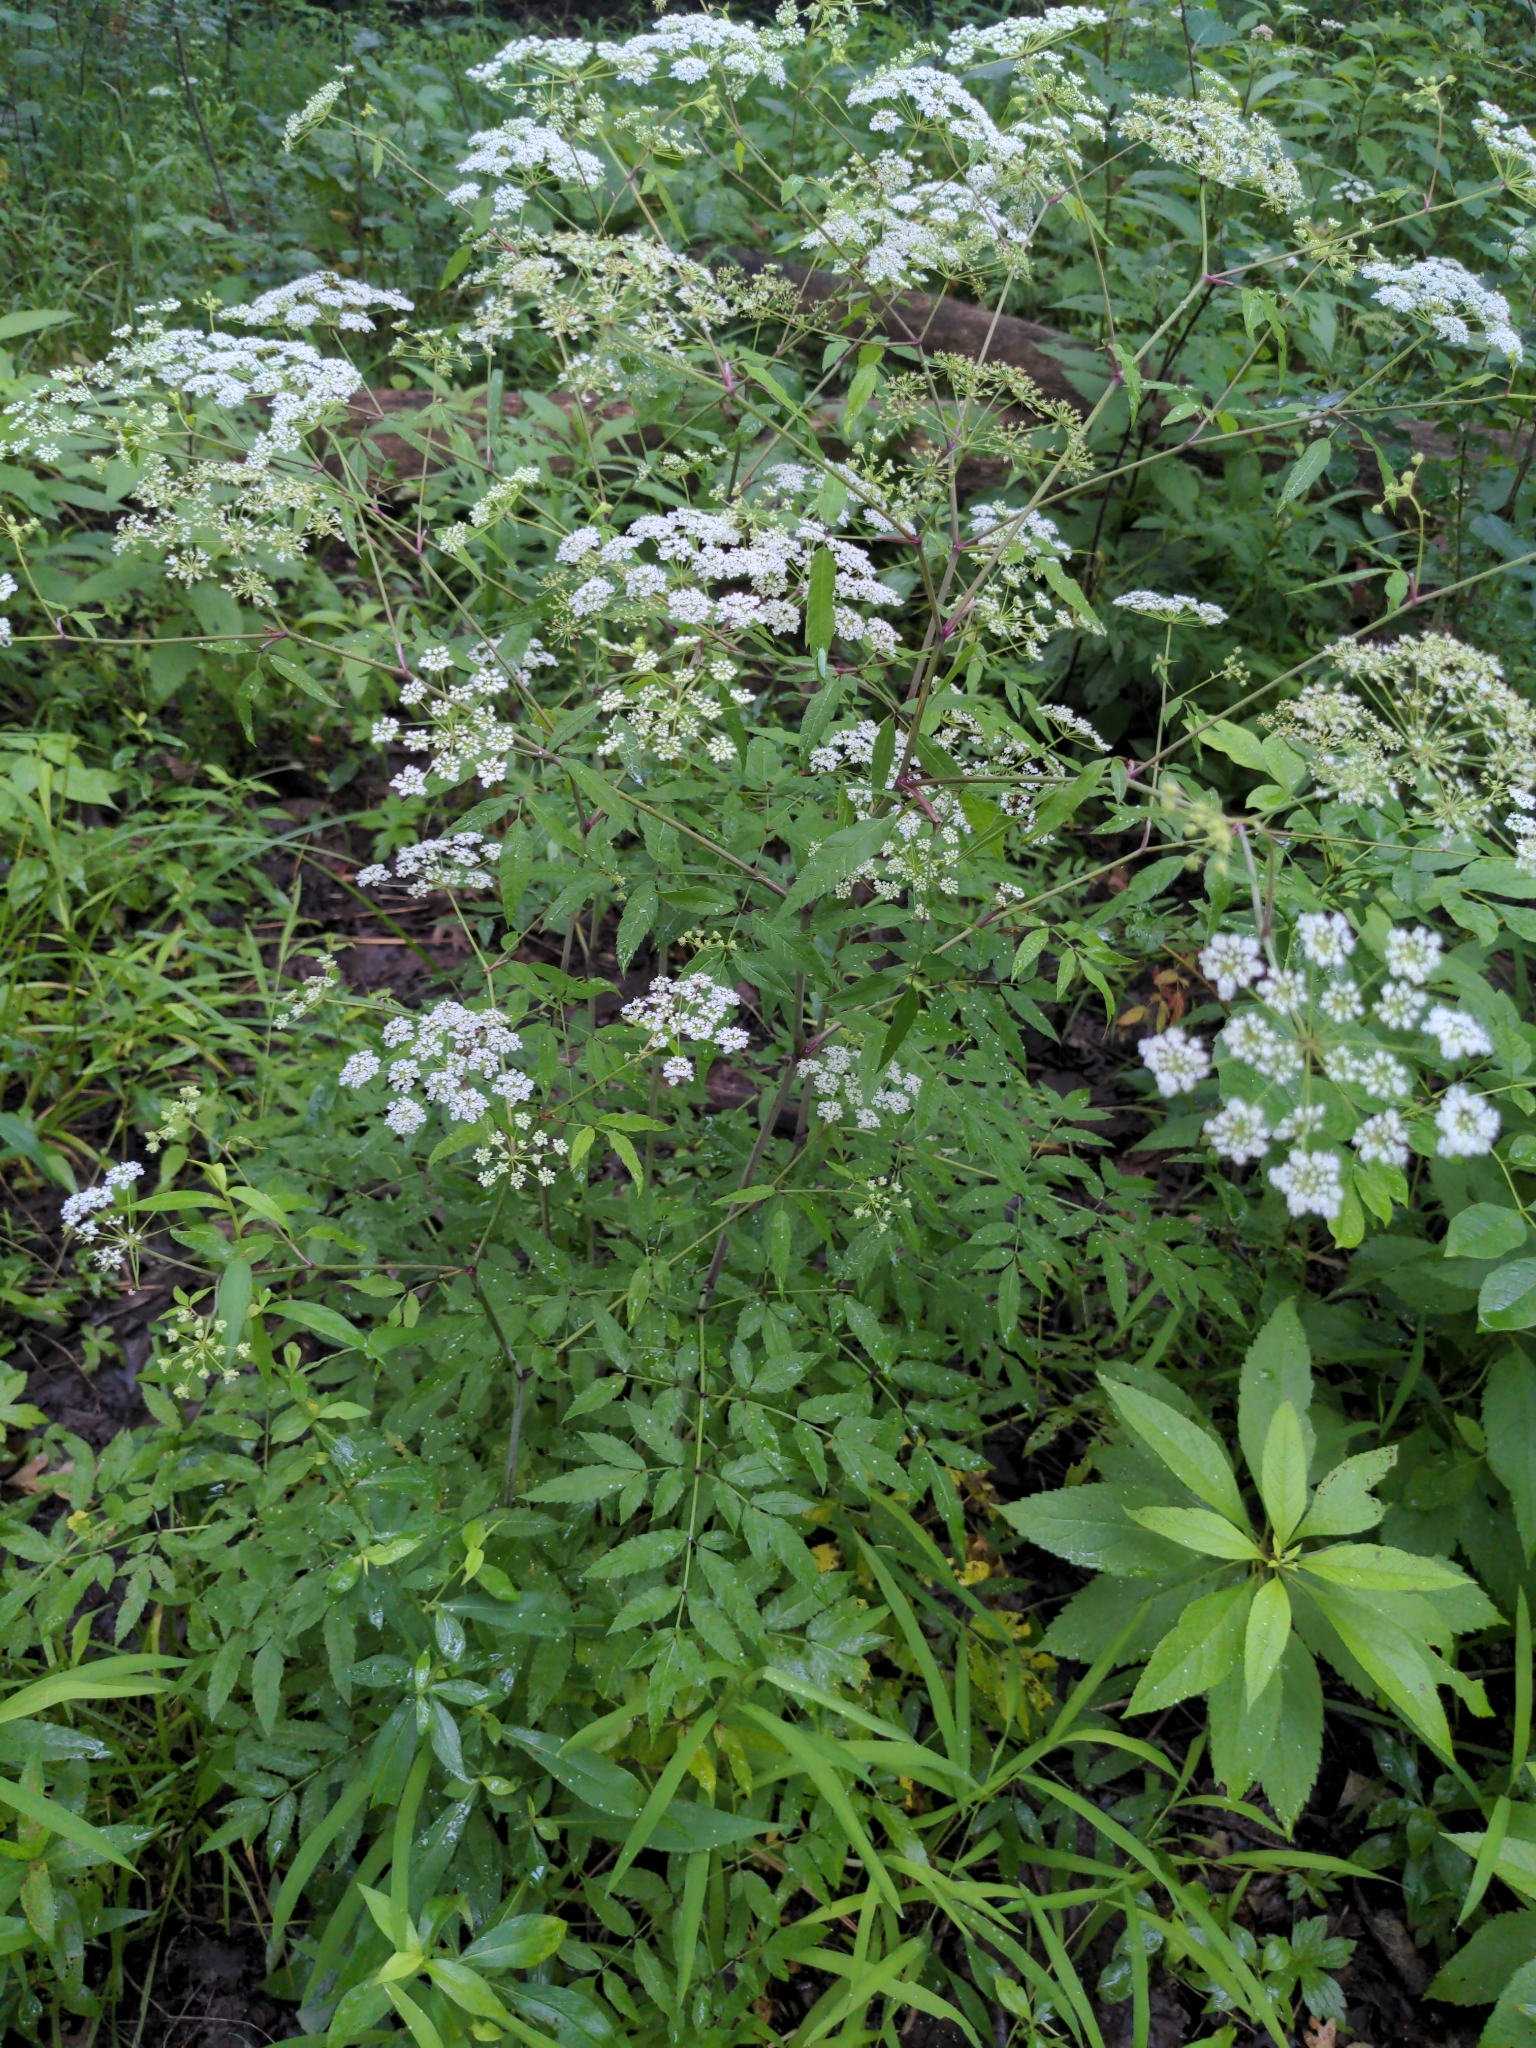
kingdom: Plantae
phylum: Tracheophyta
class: Magnoliopsida
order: Apiales
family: Apiaceae
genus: Cicuta
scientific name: Cicuta maculata
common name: Spotted cowbane
